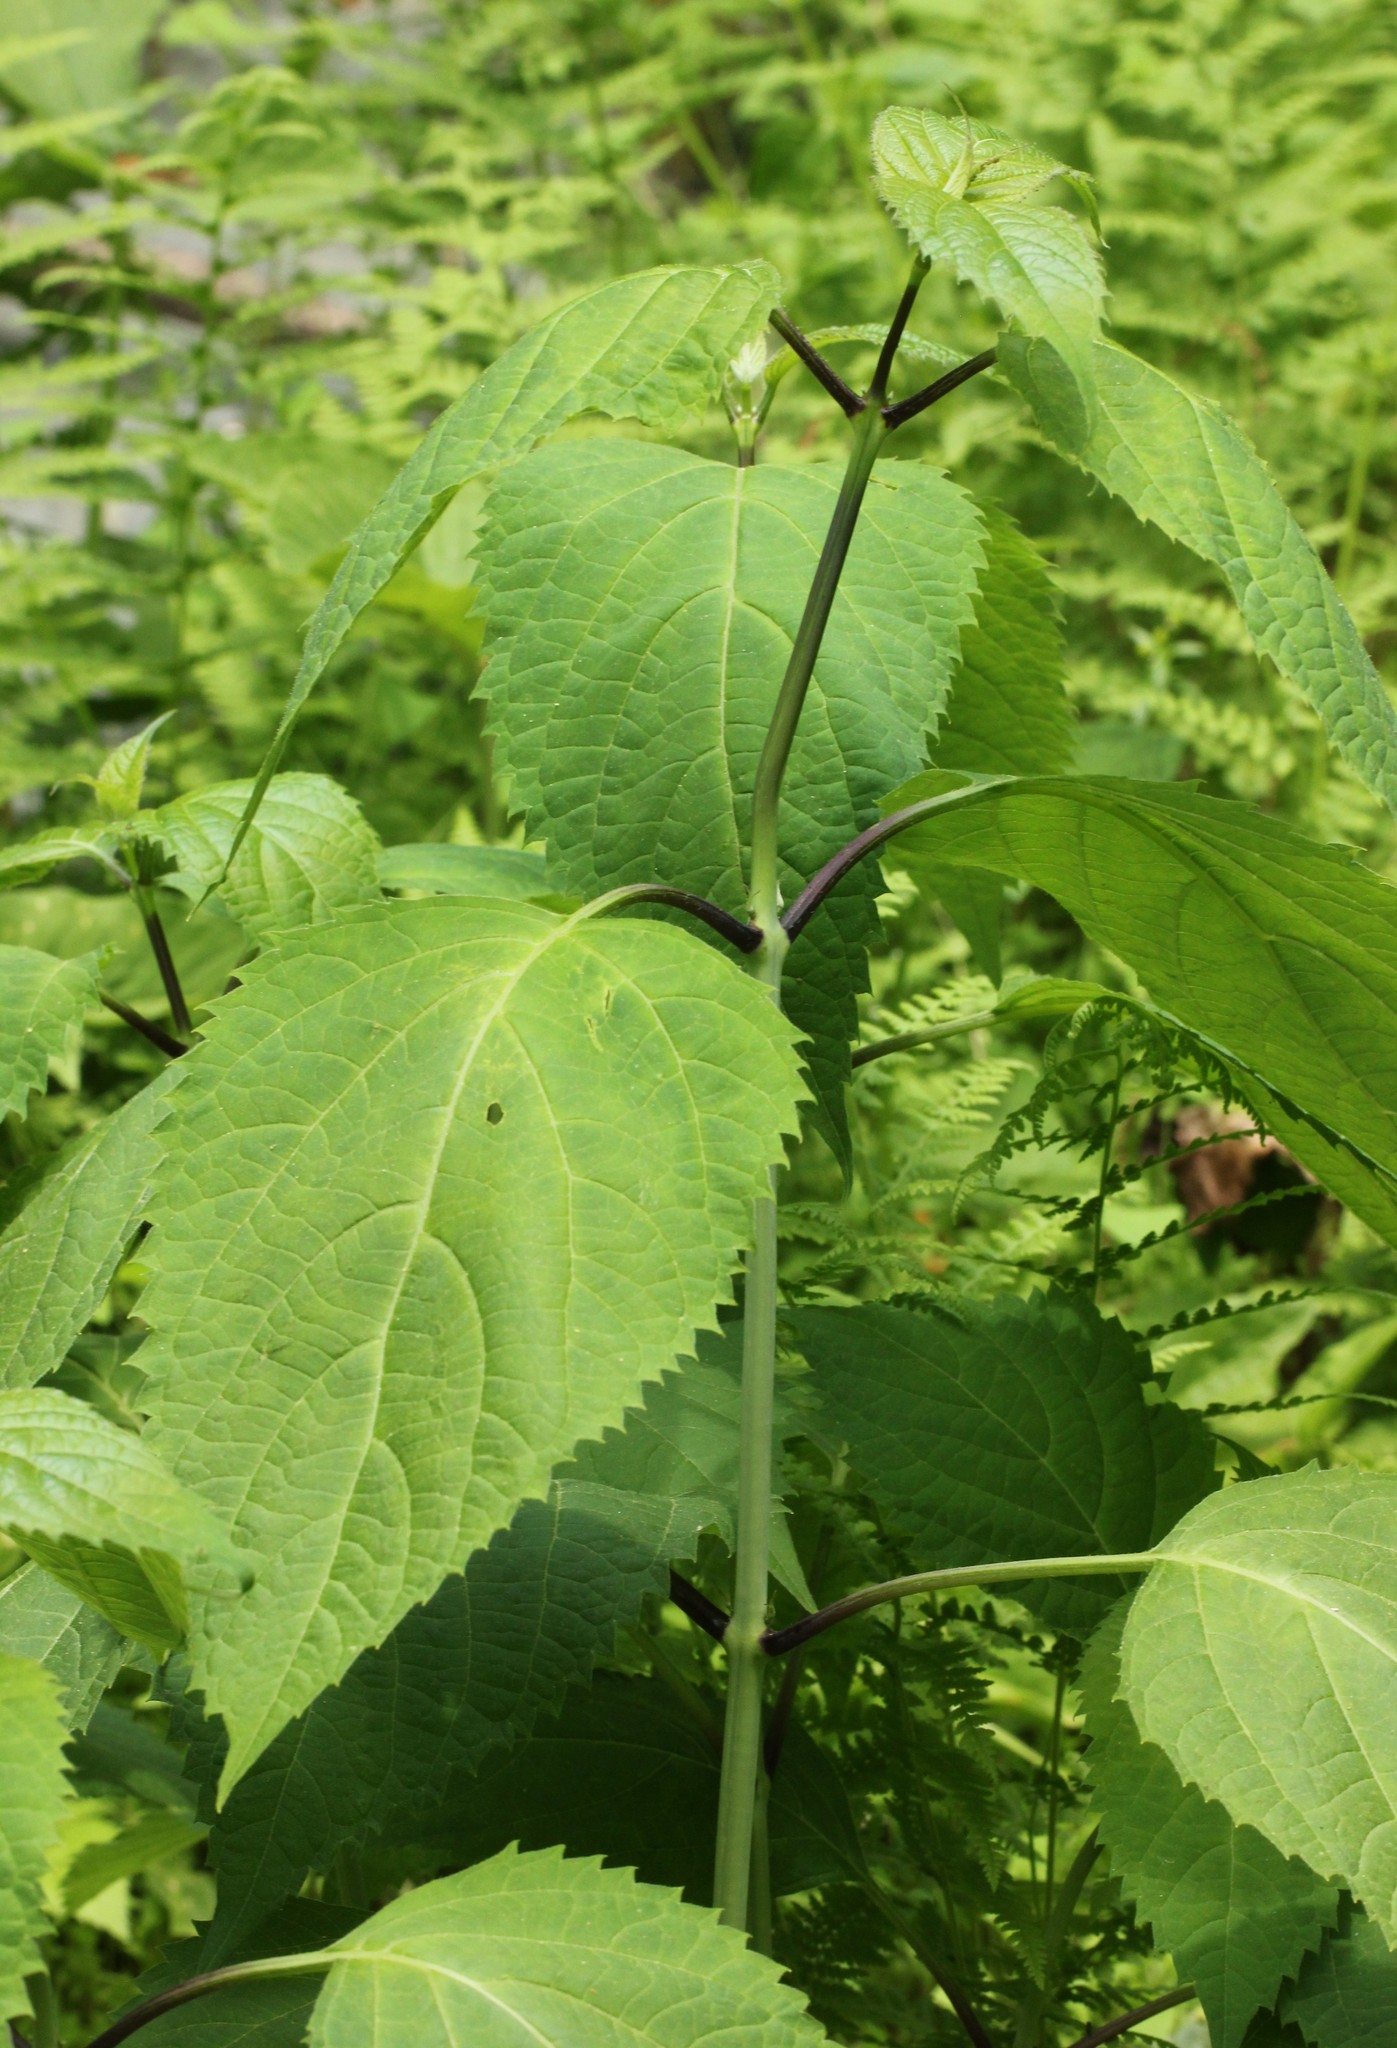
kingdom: Plantae
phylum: Tracheophyta
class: Magnoliopsida
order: Lamiales
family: Lamiaceae
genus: Collinsonia
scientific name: Collinsonia canadensis
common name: Northern horsebalm
